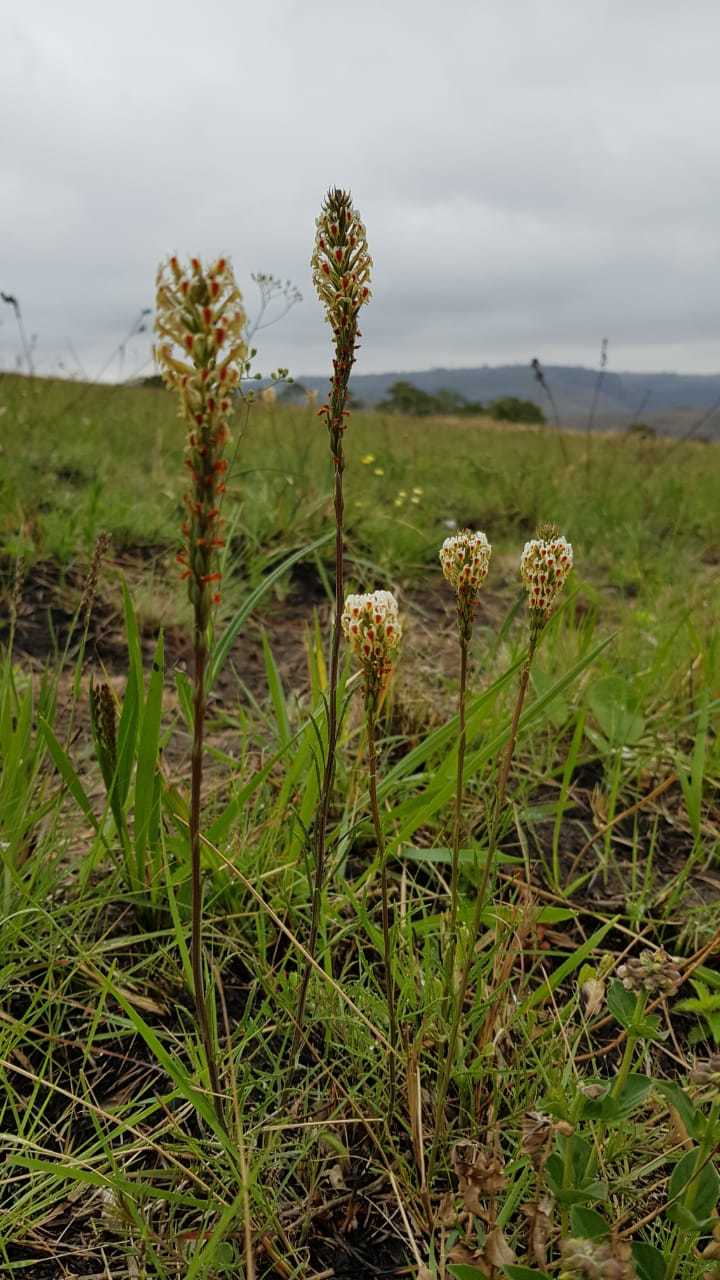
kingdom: Plantae
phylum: Tracheophyta
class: Magnoliopsida
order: Lamiales
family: Scrophulariaceae
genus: Hebenstretia
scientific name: Hebenstretia dura
